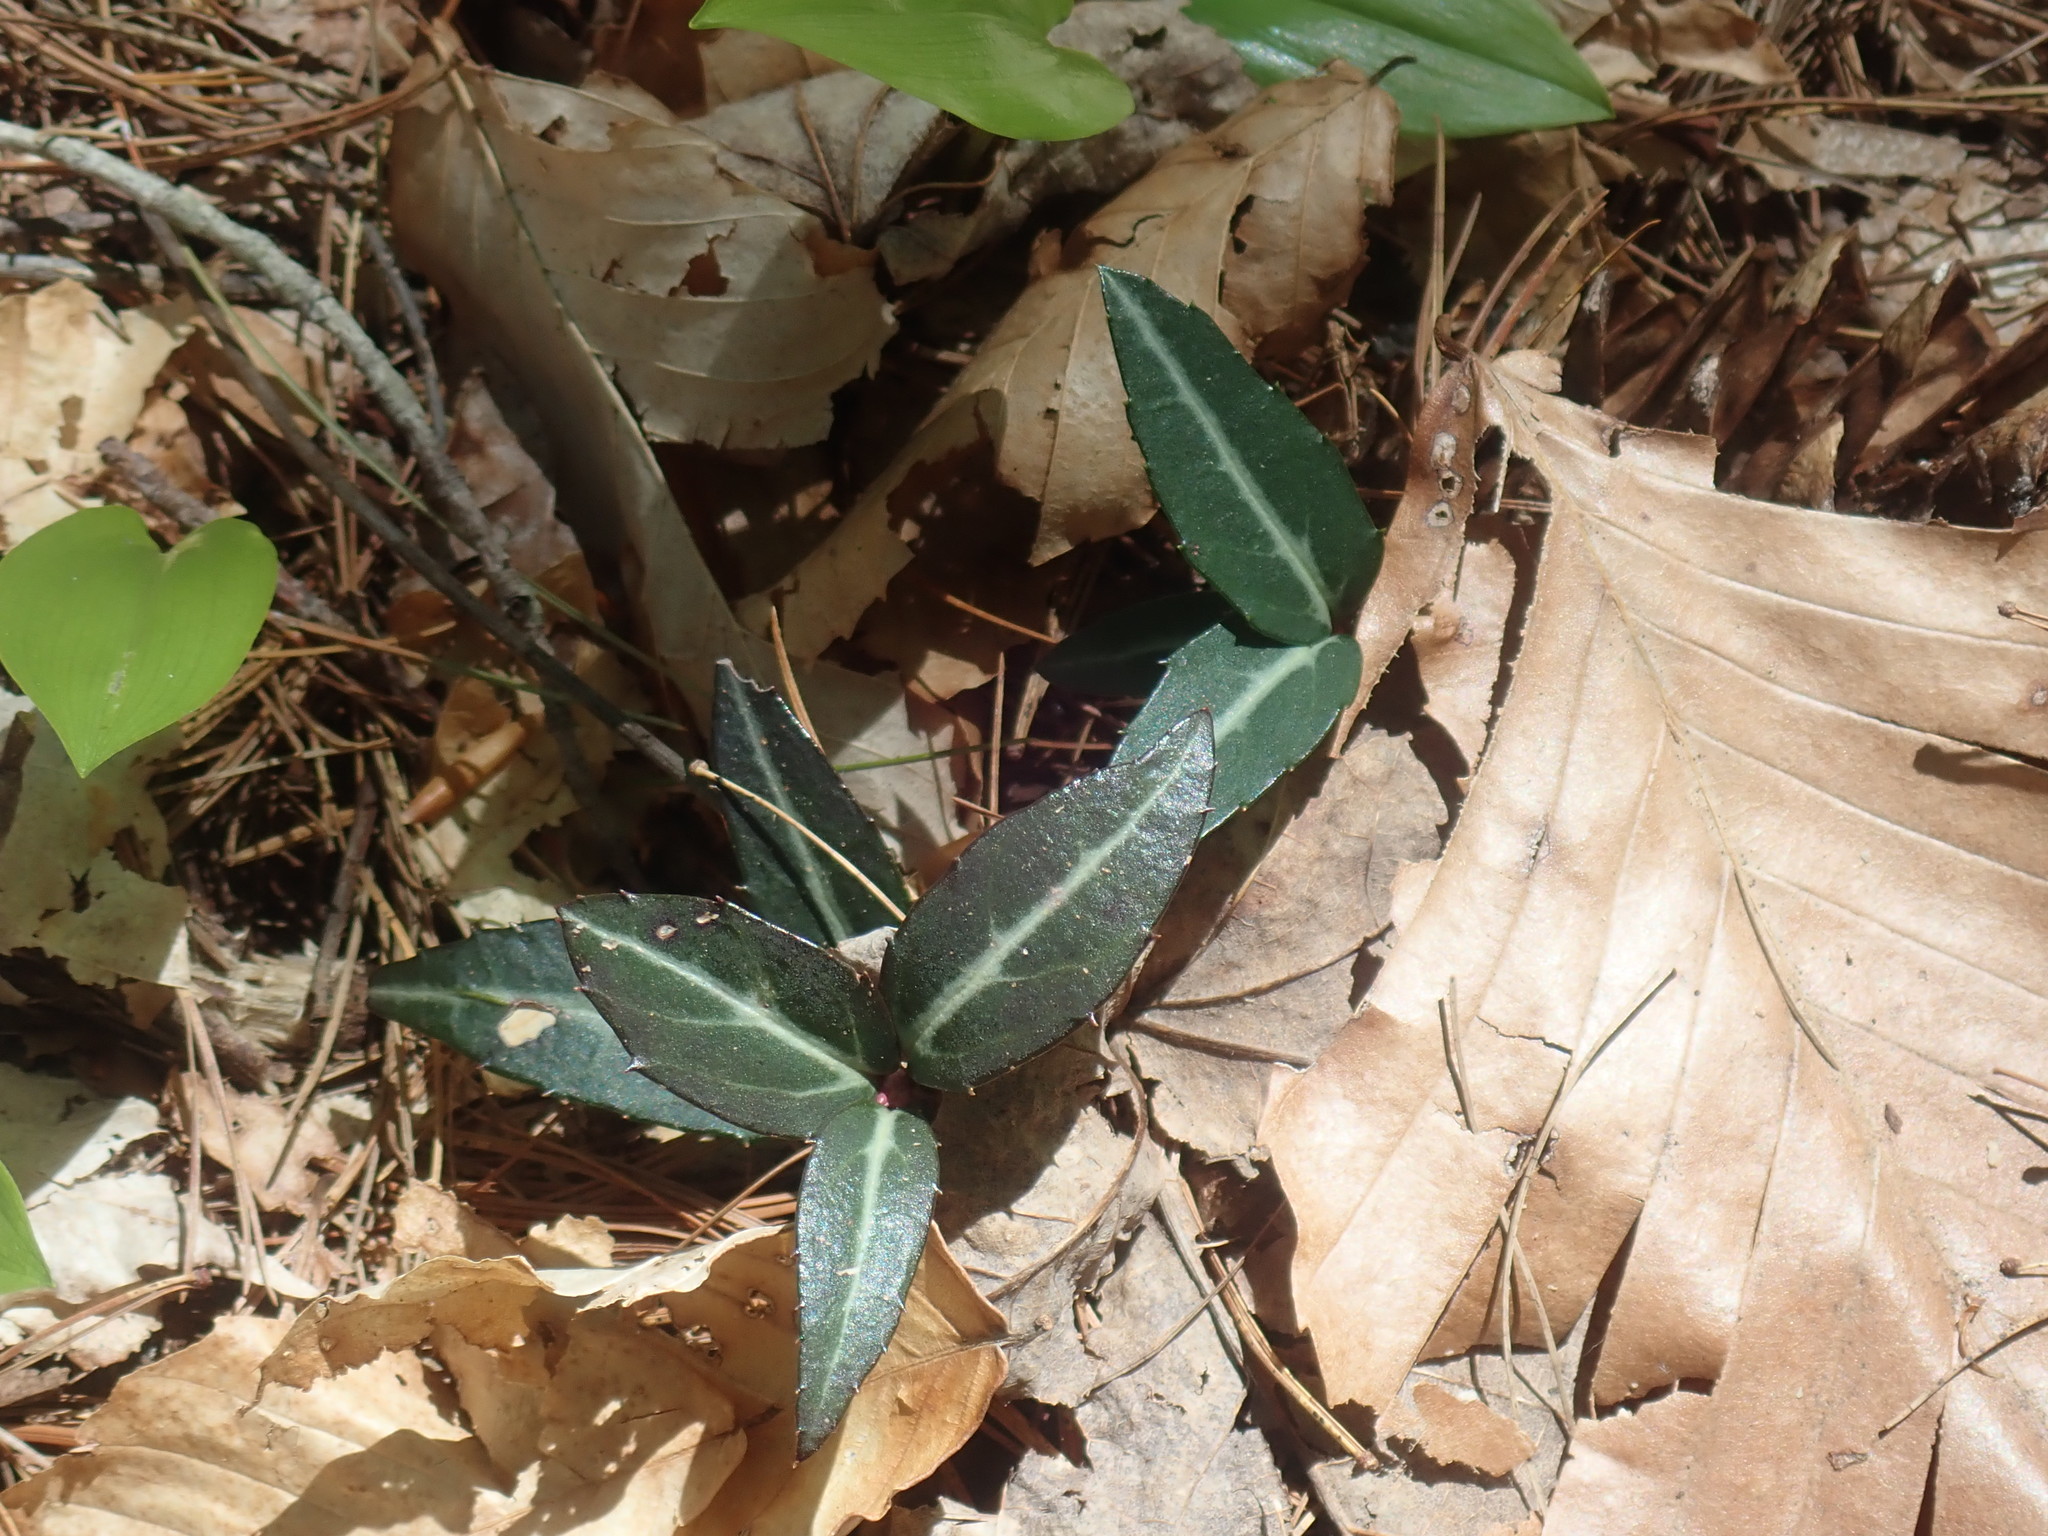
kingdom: Plantae
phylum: Tracheophyta
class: Magnoliopsida
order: Ericales
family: Ericaceae
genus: Chimaphila
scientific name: Chimaphila maculata
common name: Spotted pipsissewa
